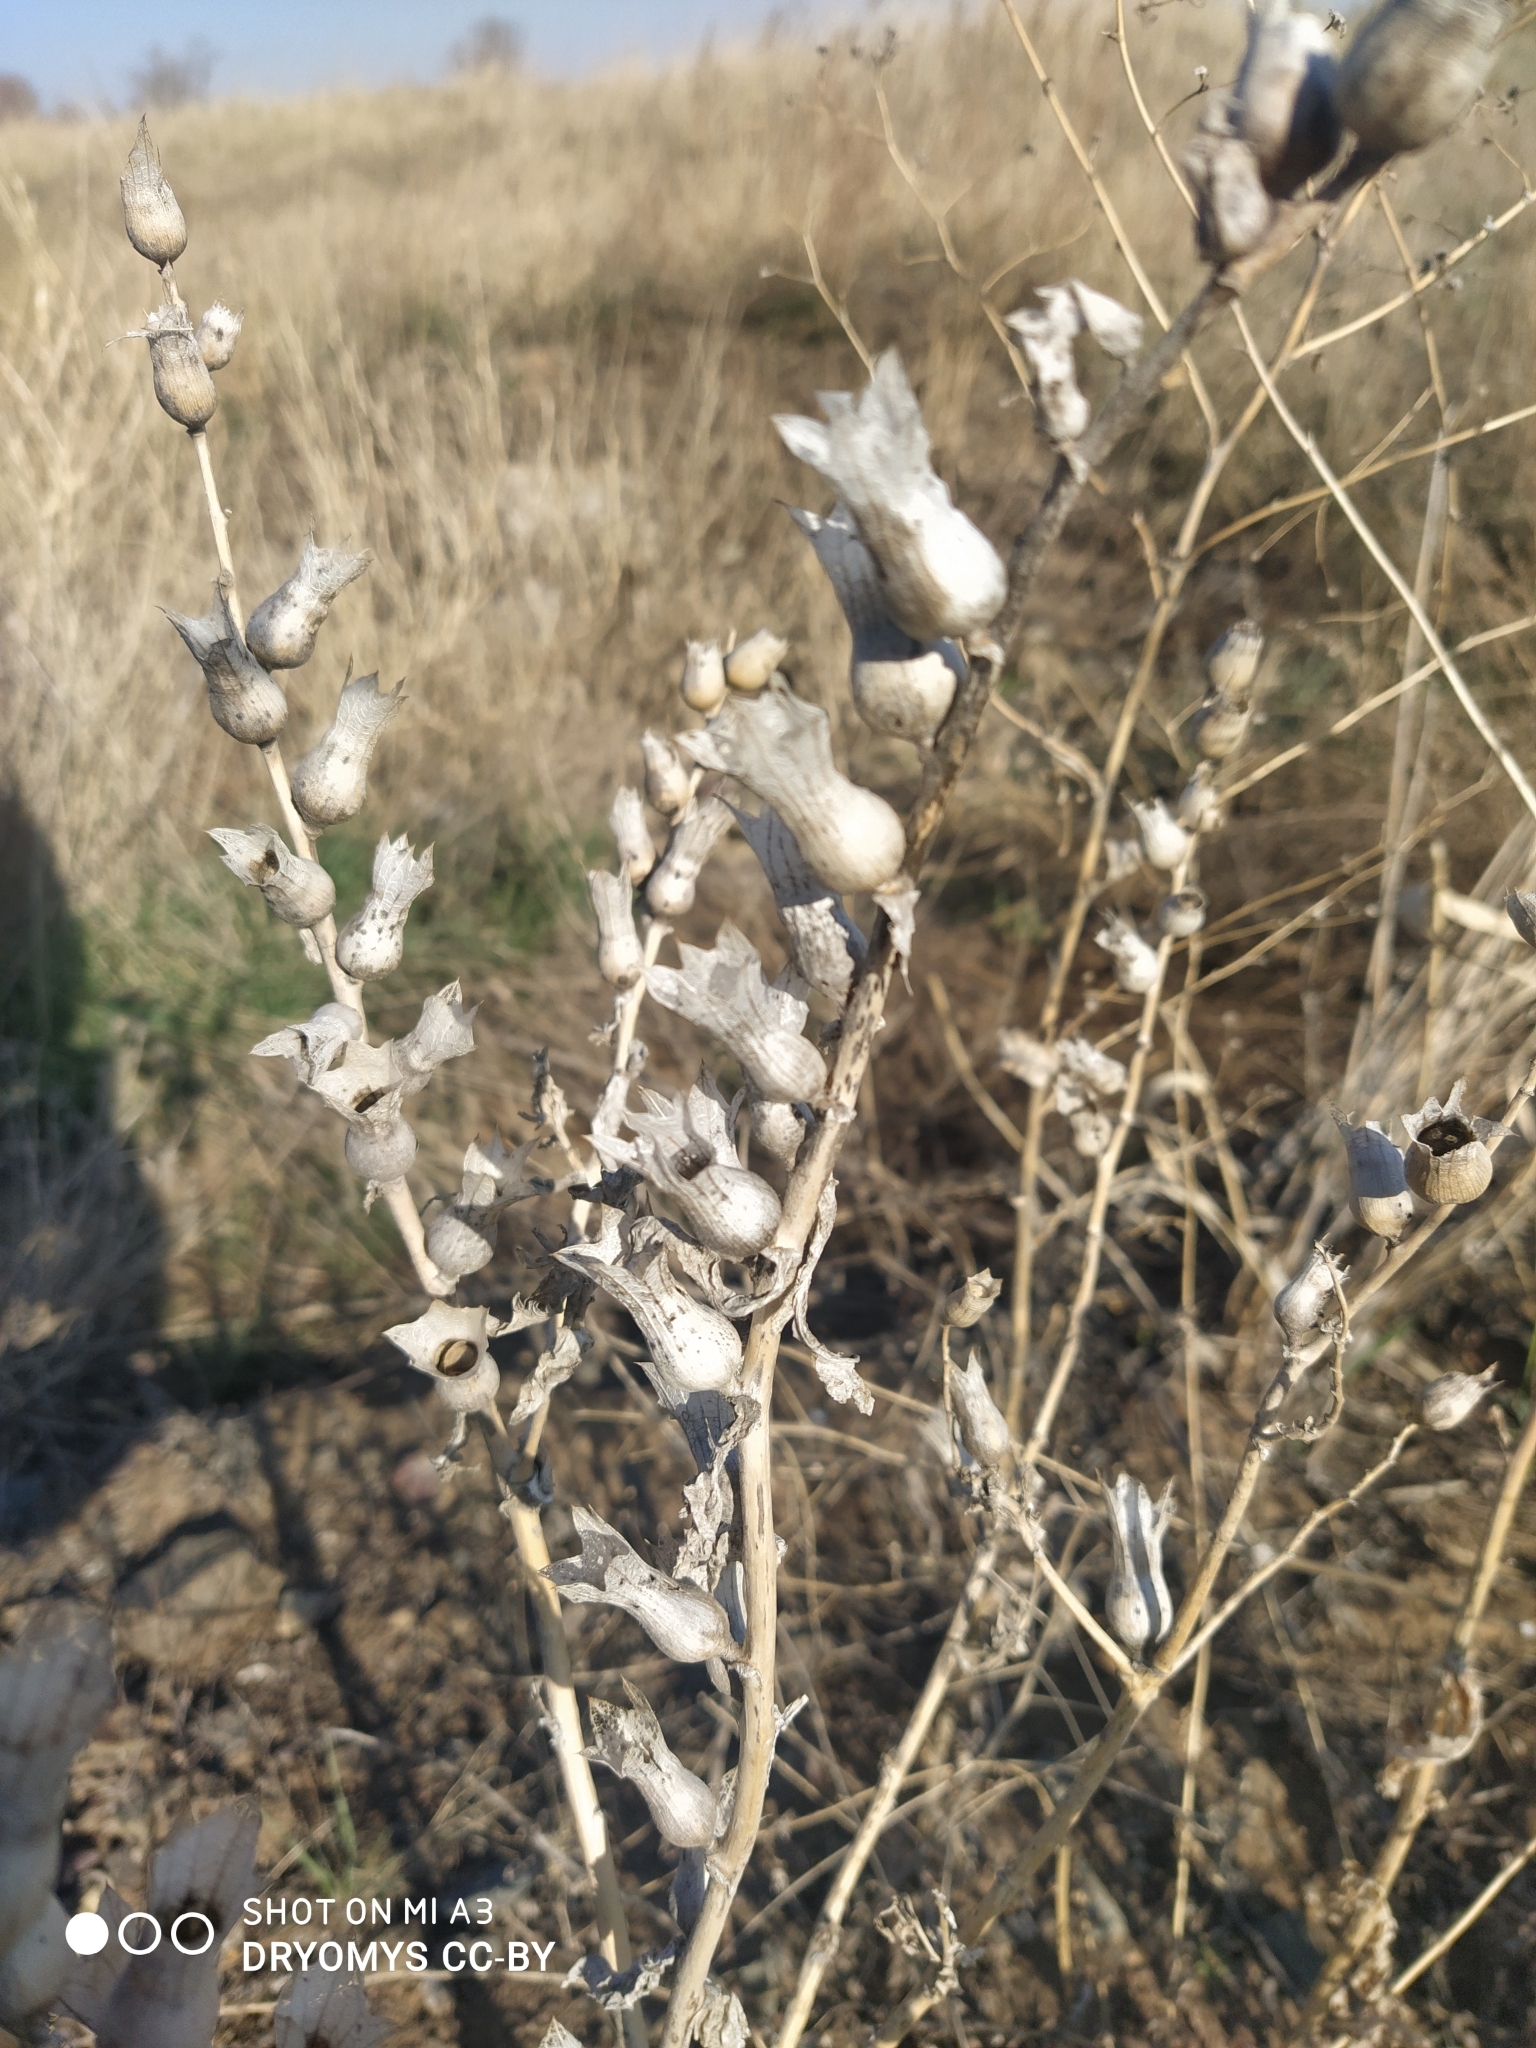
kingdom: Plantae
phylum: Tracheophyta
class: Magnoliopsida
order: Solanales
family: Solanaceae
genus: Hyoscyamus
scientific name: Hyoscyamus niger
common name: Henbane
